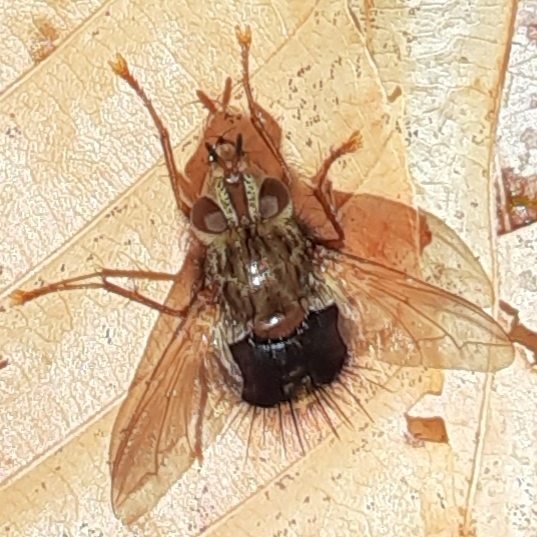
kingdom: Animalia
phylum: Arthropoda
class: Insecta
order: Diptera
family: Tachinidae
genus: Epalpus
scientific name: Epalpus signifer
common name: Early tachinid fly
